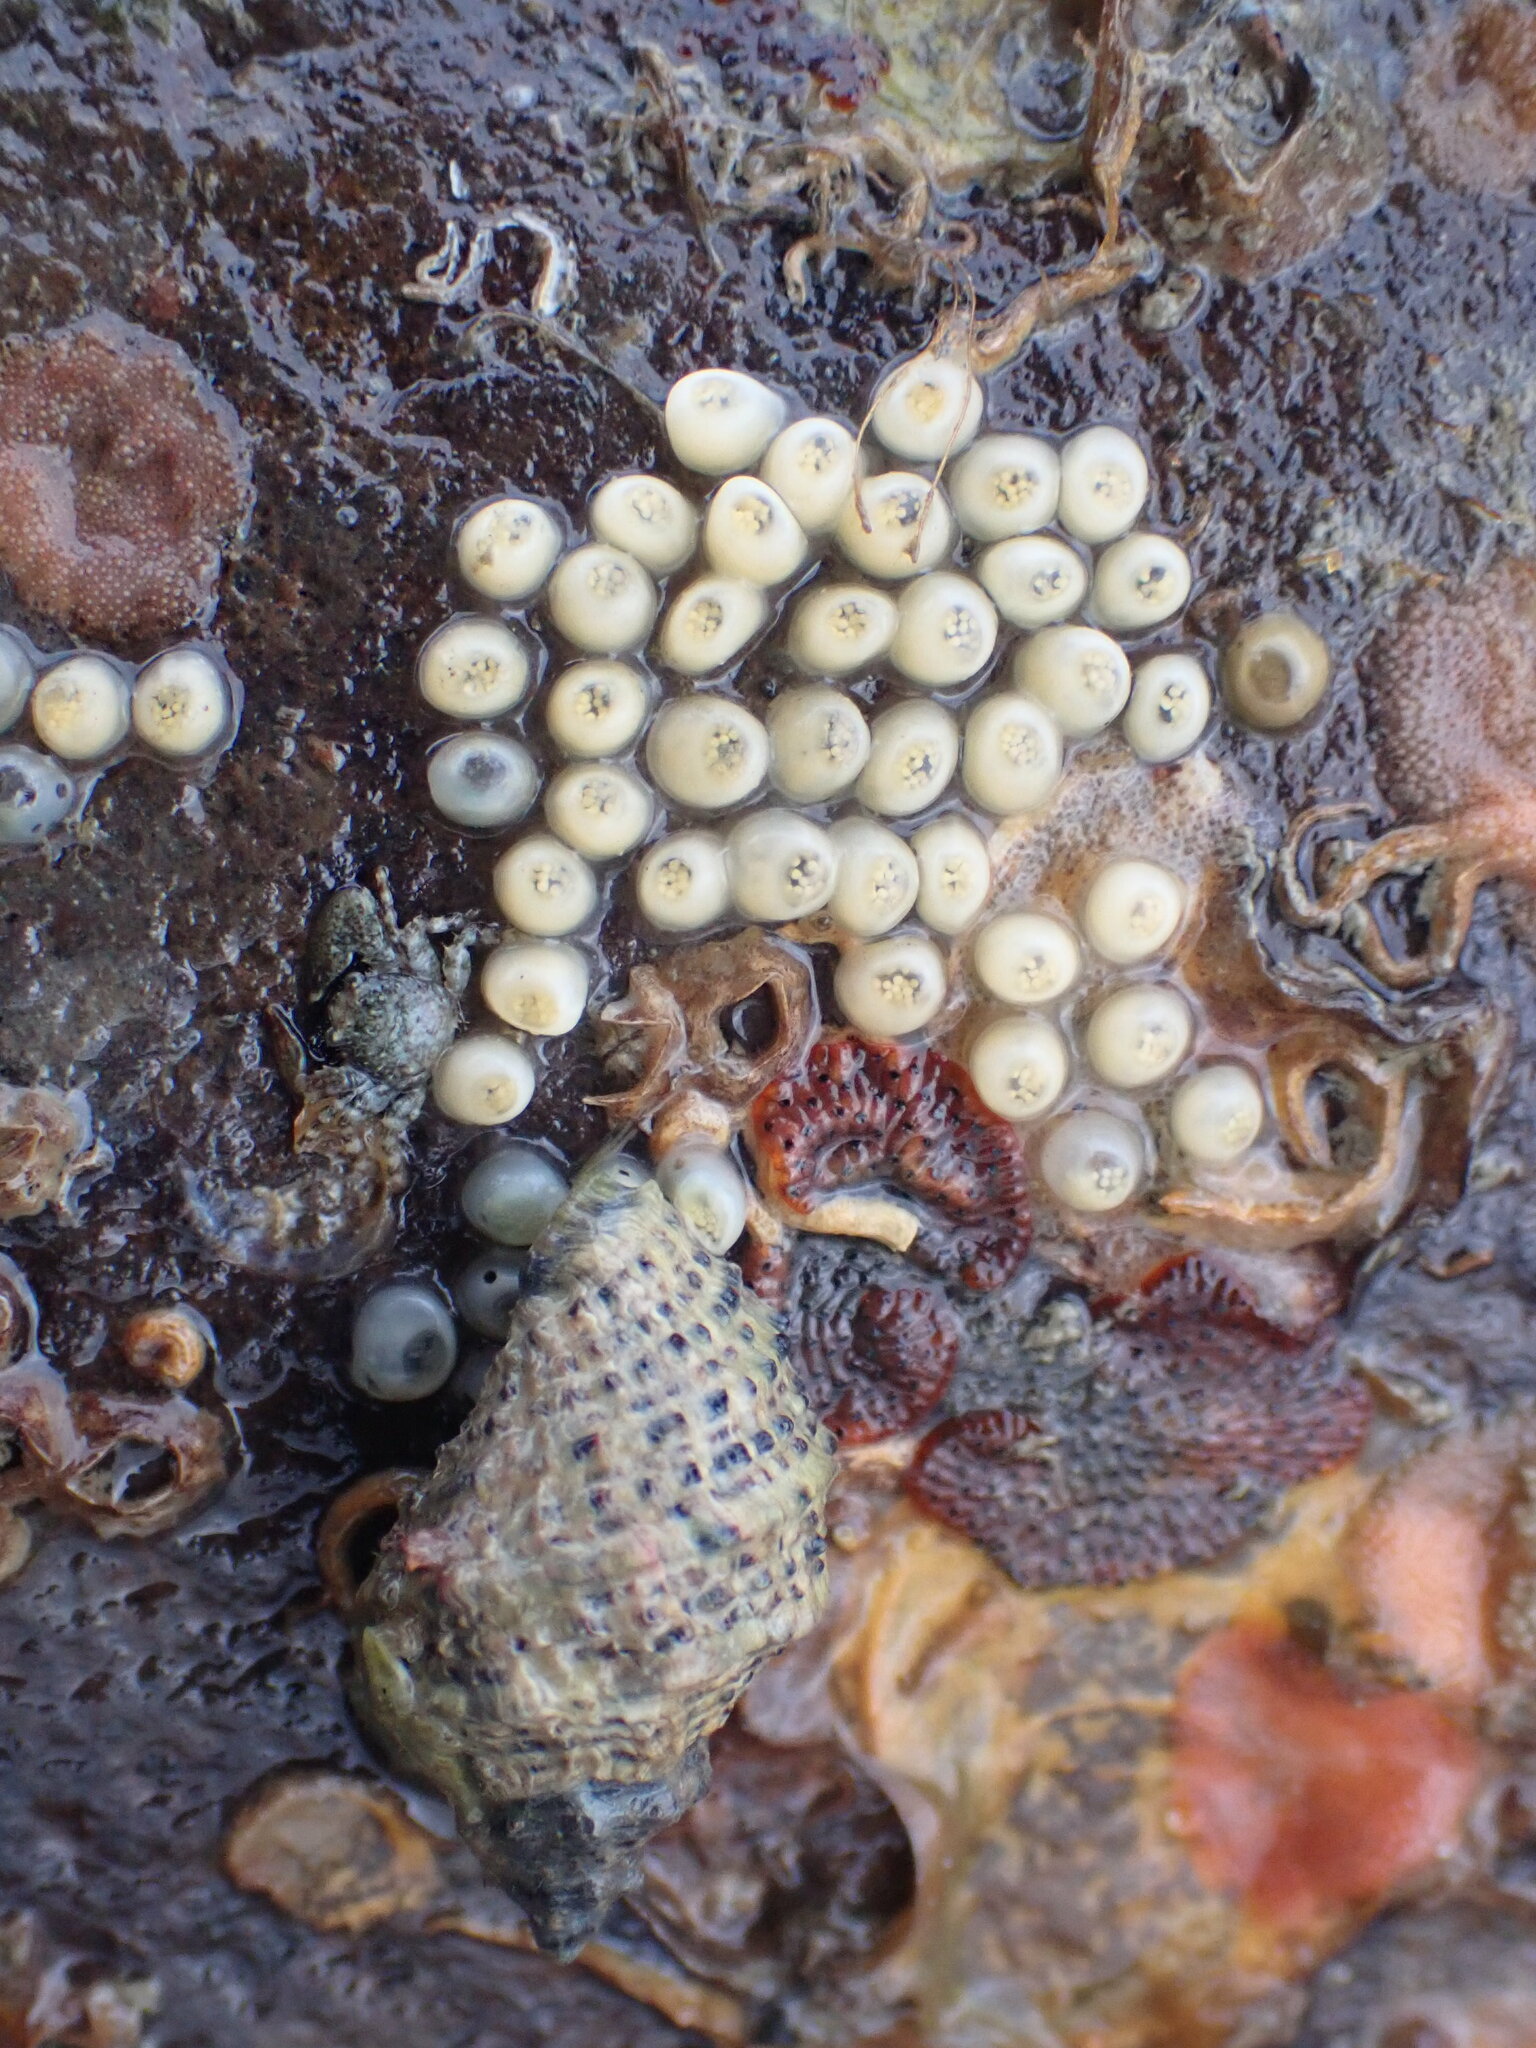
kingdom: Animalia
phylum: Mollusca
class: Gastropoda
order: Neogastropoda
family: Muricidae
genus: Haustrum
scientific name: Haustrum
